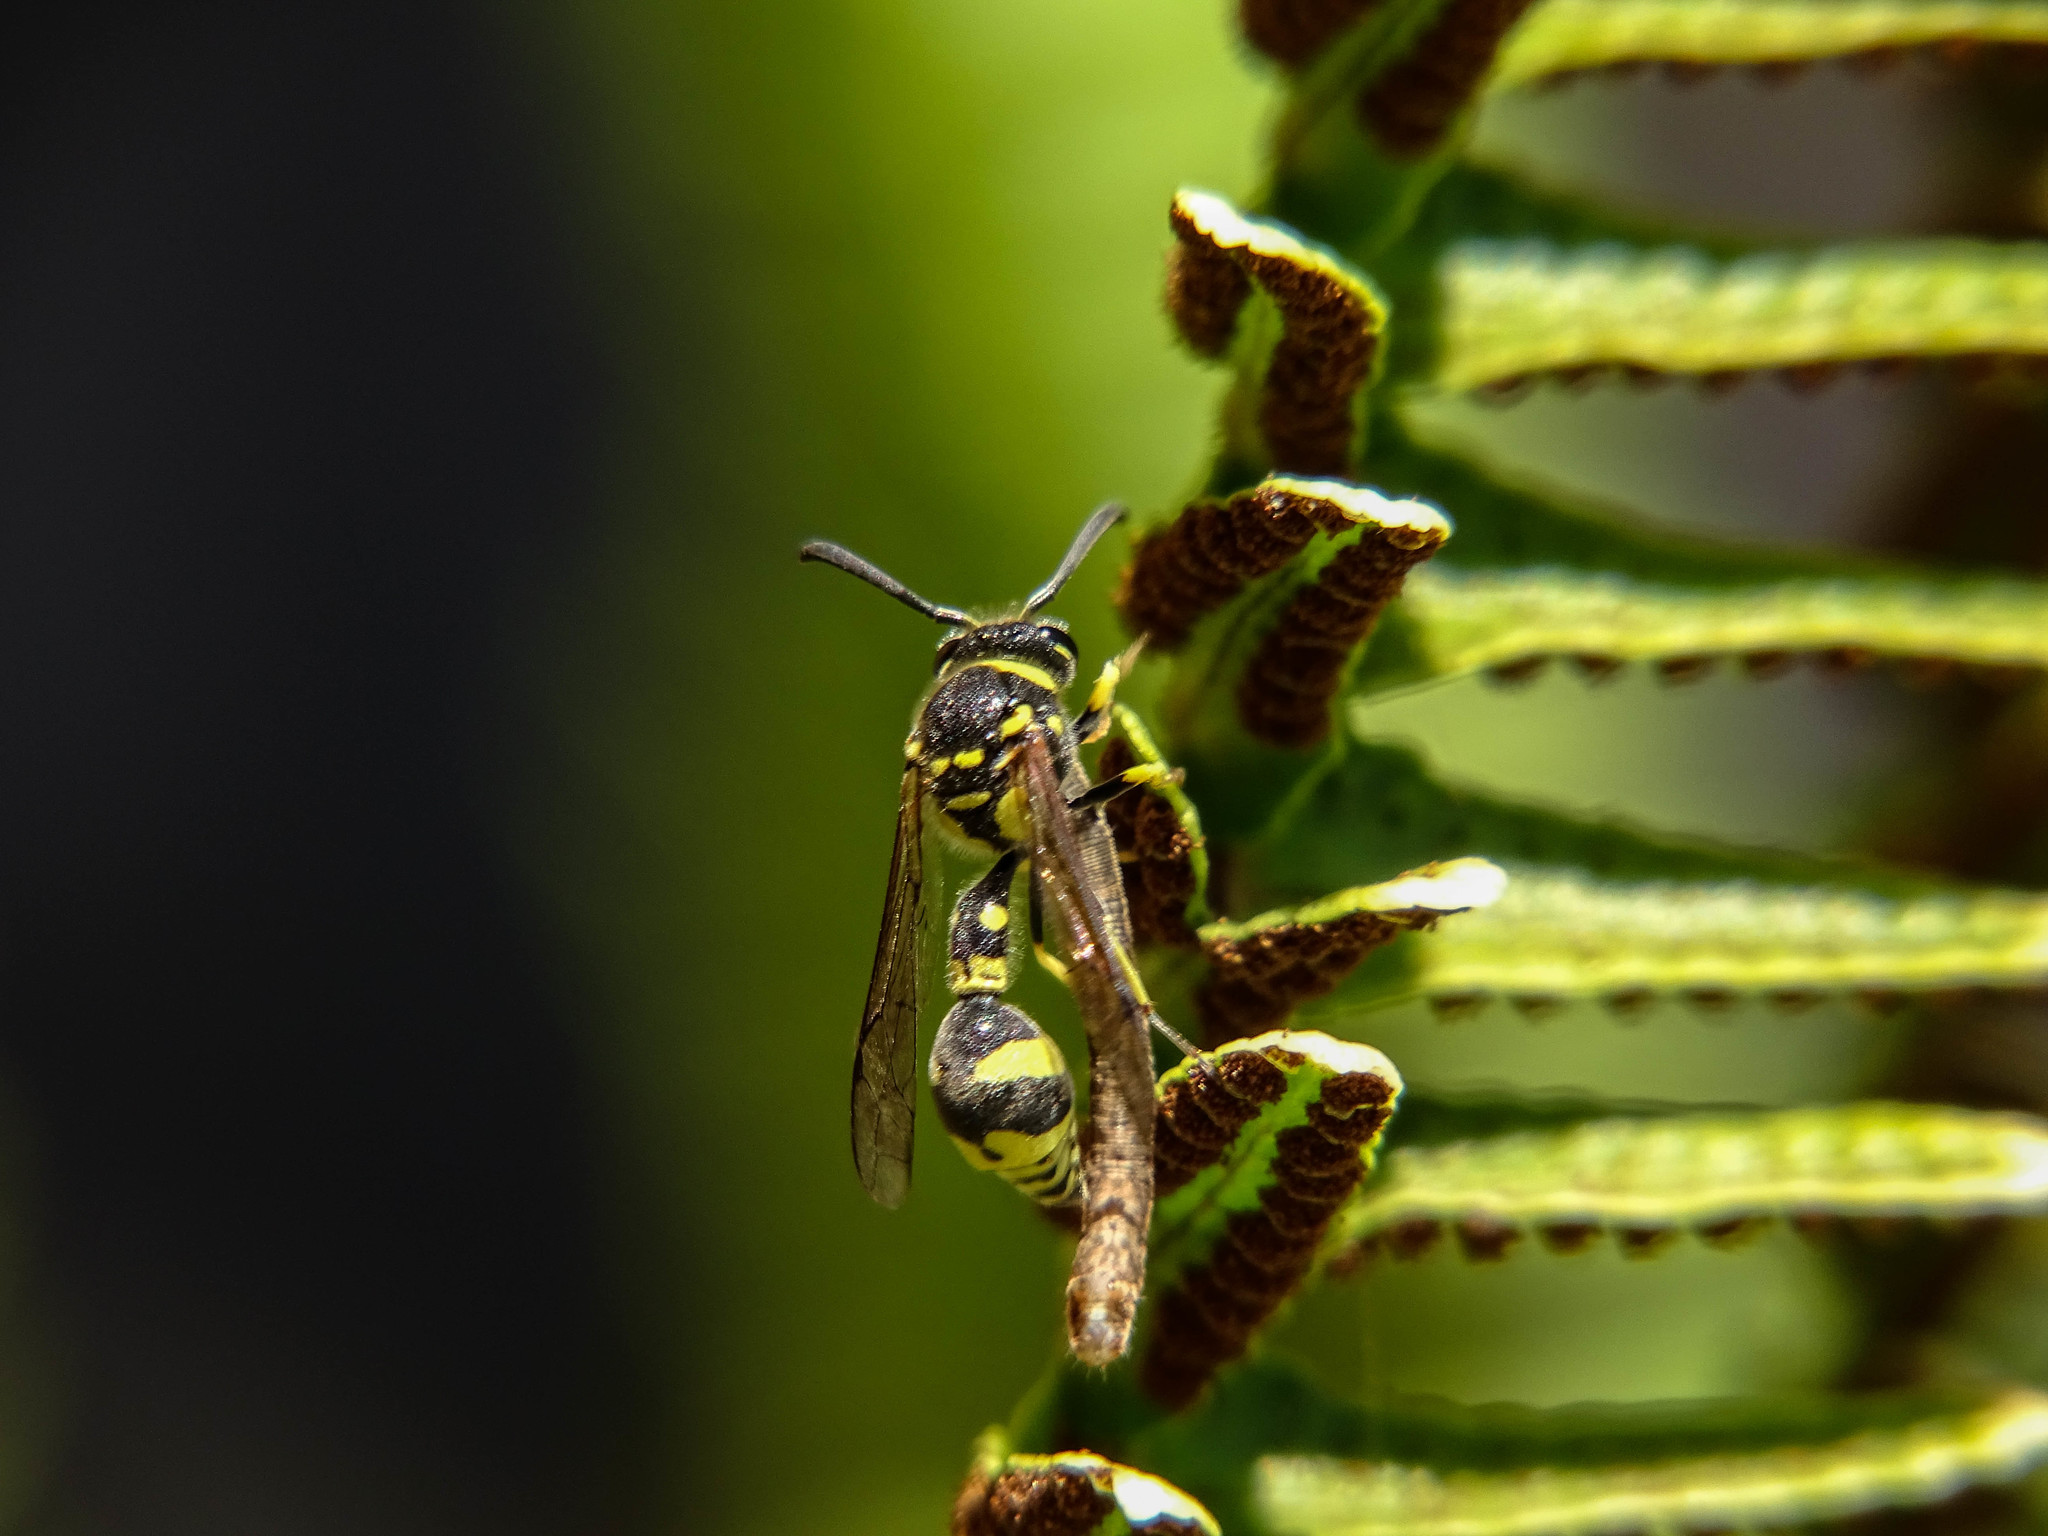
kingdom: Animalia
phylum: Arthropoda
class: Insecta
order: Hymenoptera
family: Vespidae
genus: Eumenes
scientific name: Eumenes mediterraneus
